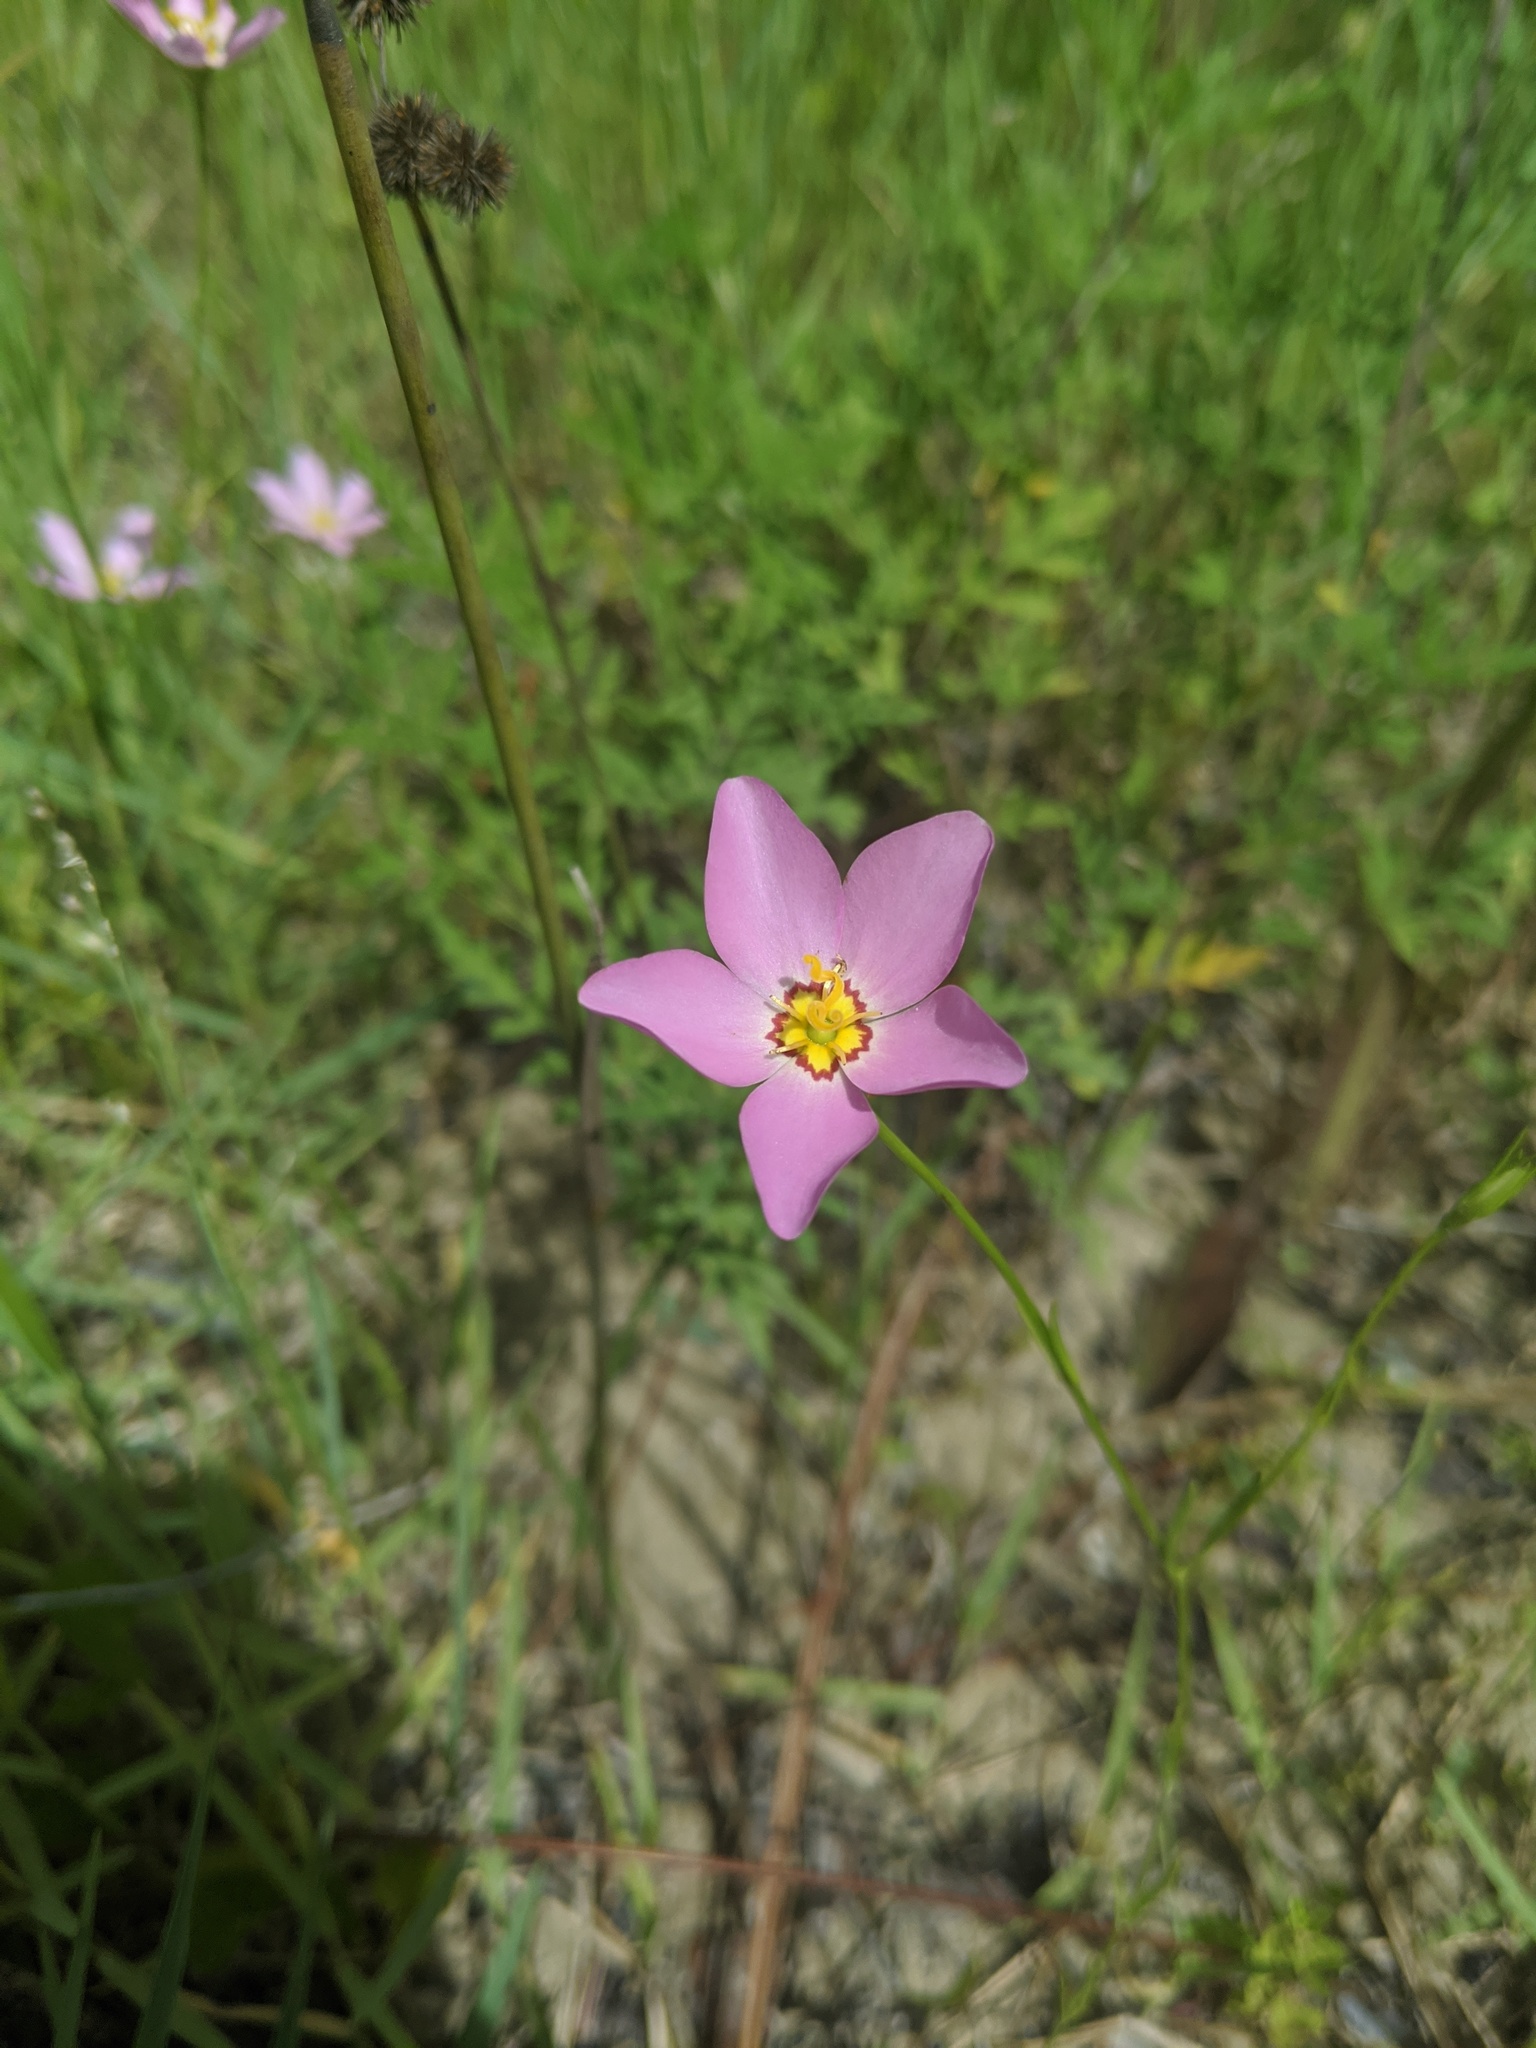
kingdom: Plantae
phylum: Tracheophyta
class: Magnoliopsida
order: Gentianales
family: Gentianaceae
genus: Sabatia
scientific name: Sabatia stellaris
